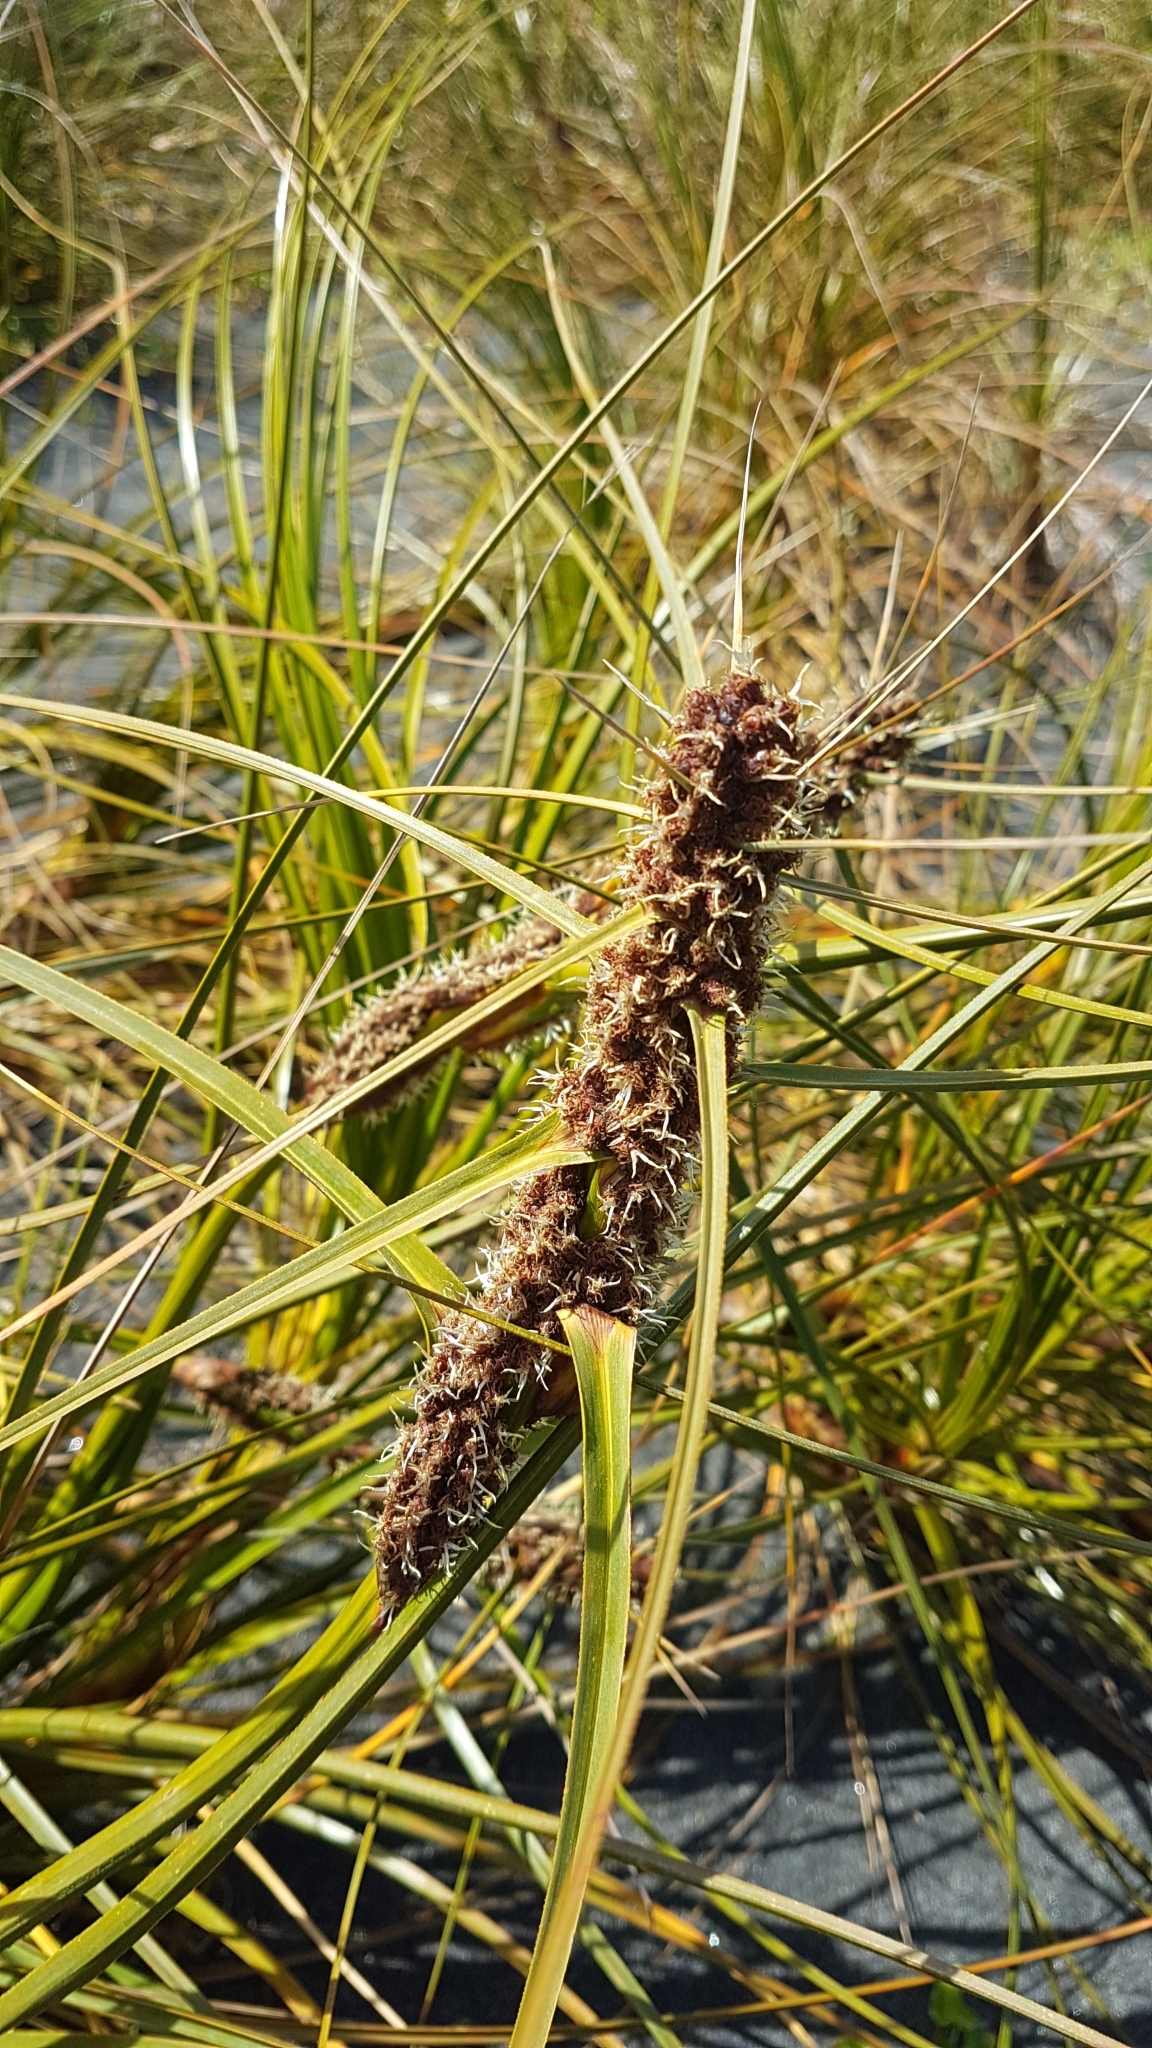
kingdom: Plantae
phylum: Tracheophyta
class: Liliopsida
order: Poales
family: Cyperaceae
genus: Ficinia
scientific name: Ficinia spiralis
